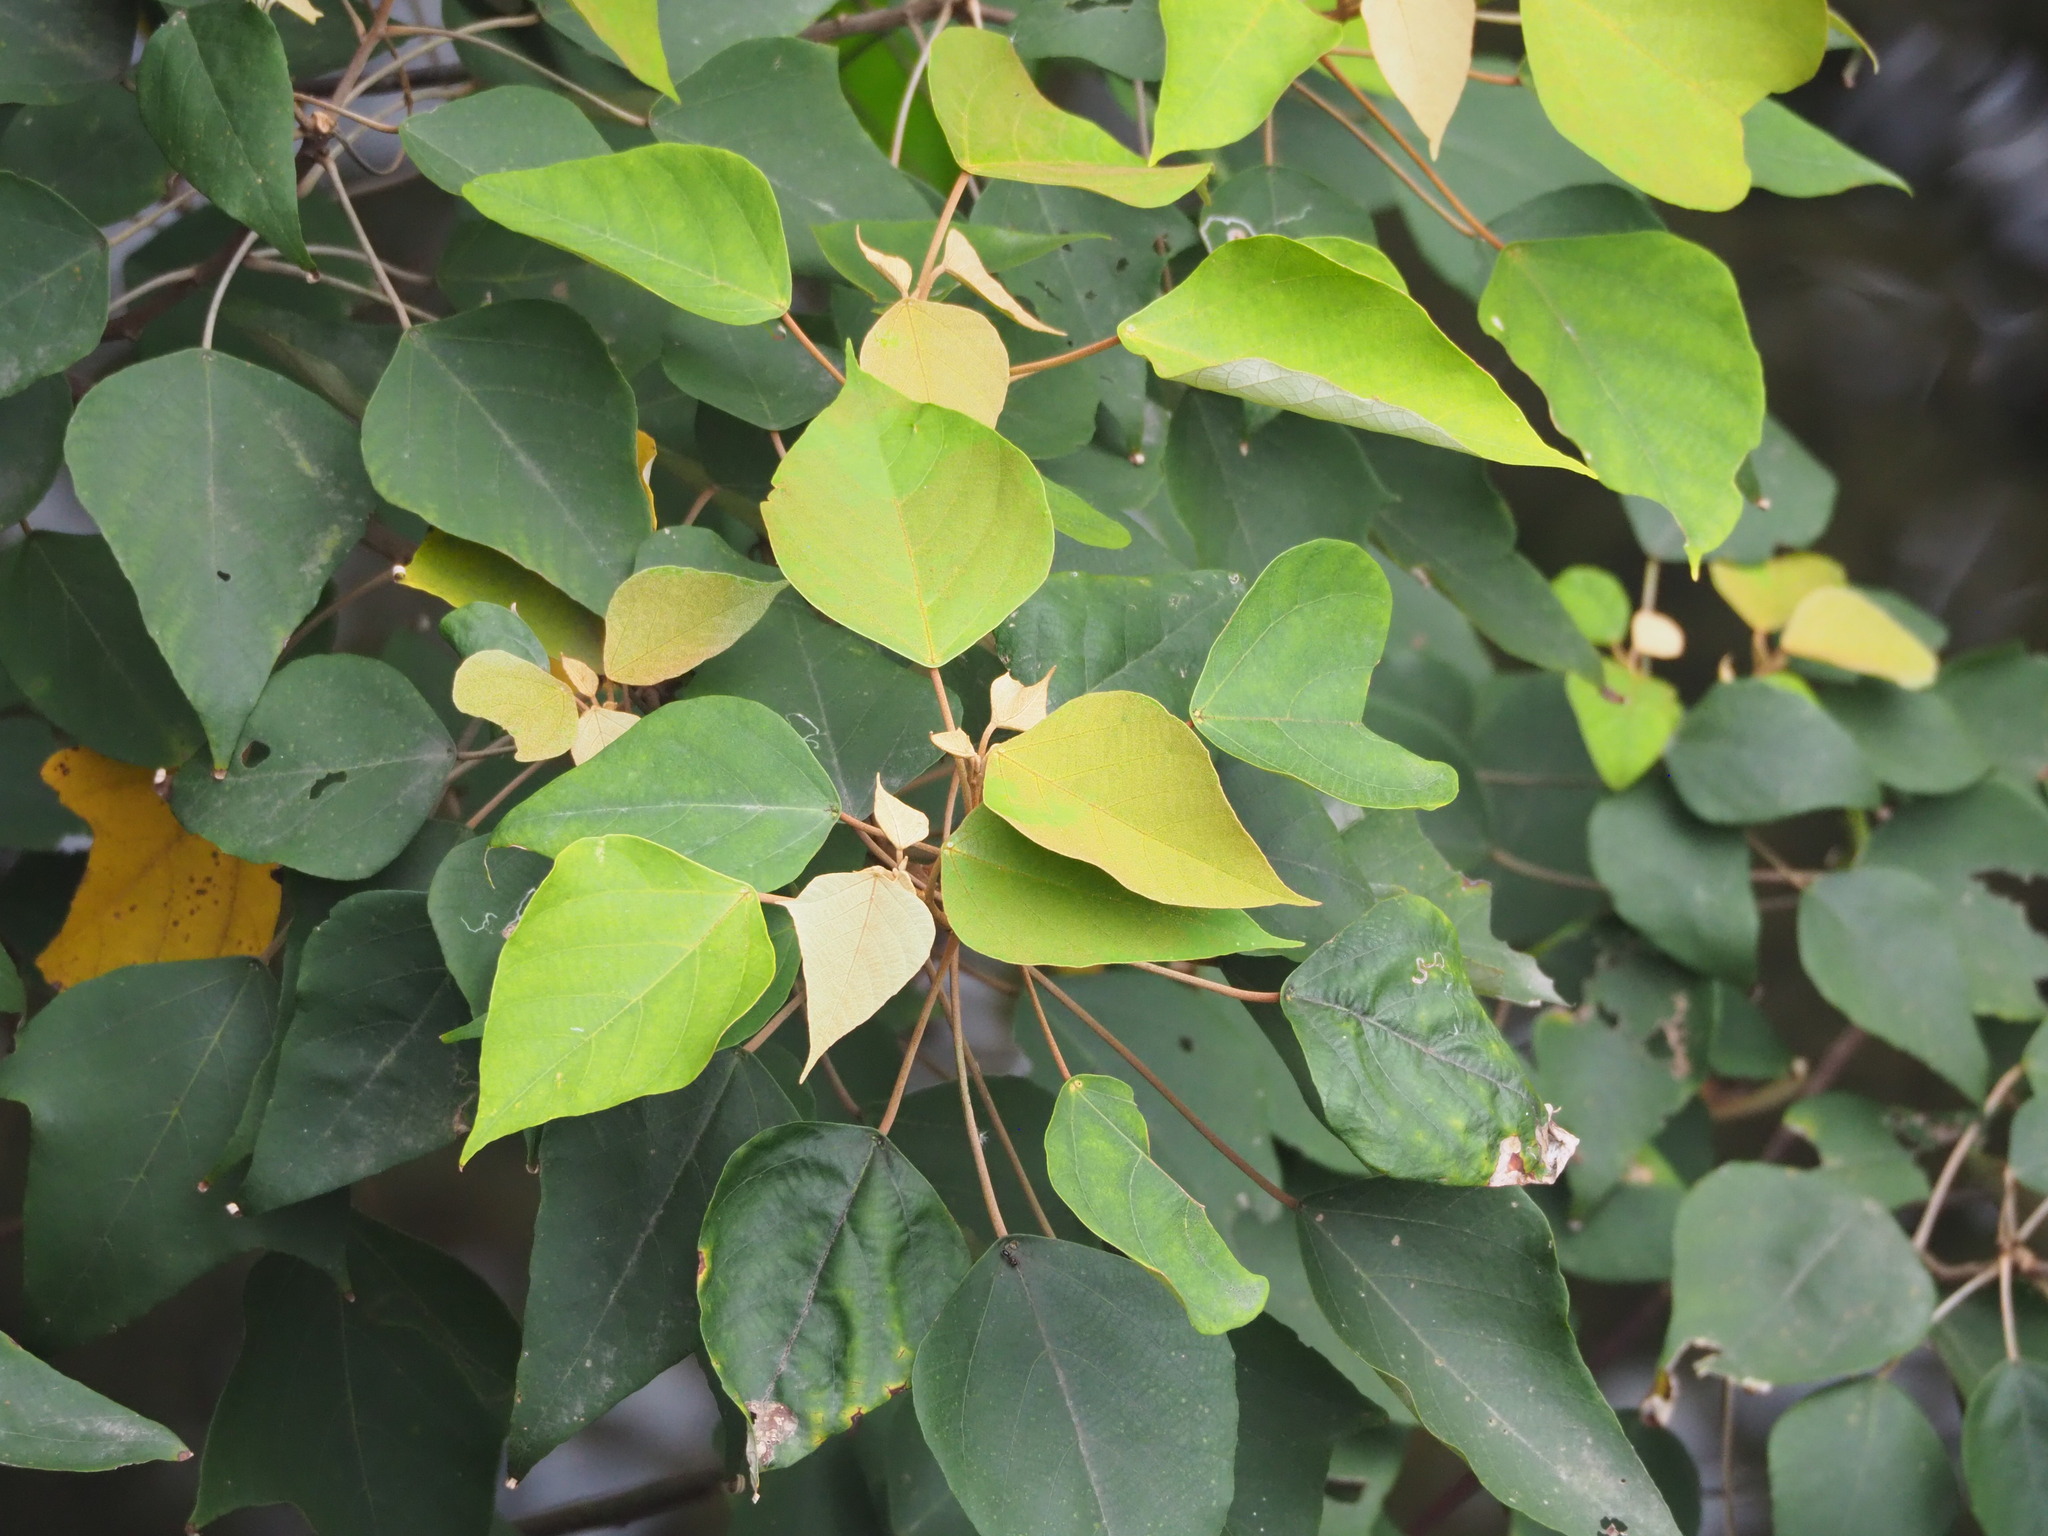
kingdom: Plantae
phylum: Tracheophyta
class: Magnoliopsida
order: Malpighiales
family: Euphorbiaceae
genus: Mallotus
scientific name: Mallotus paniculatus
